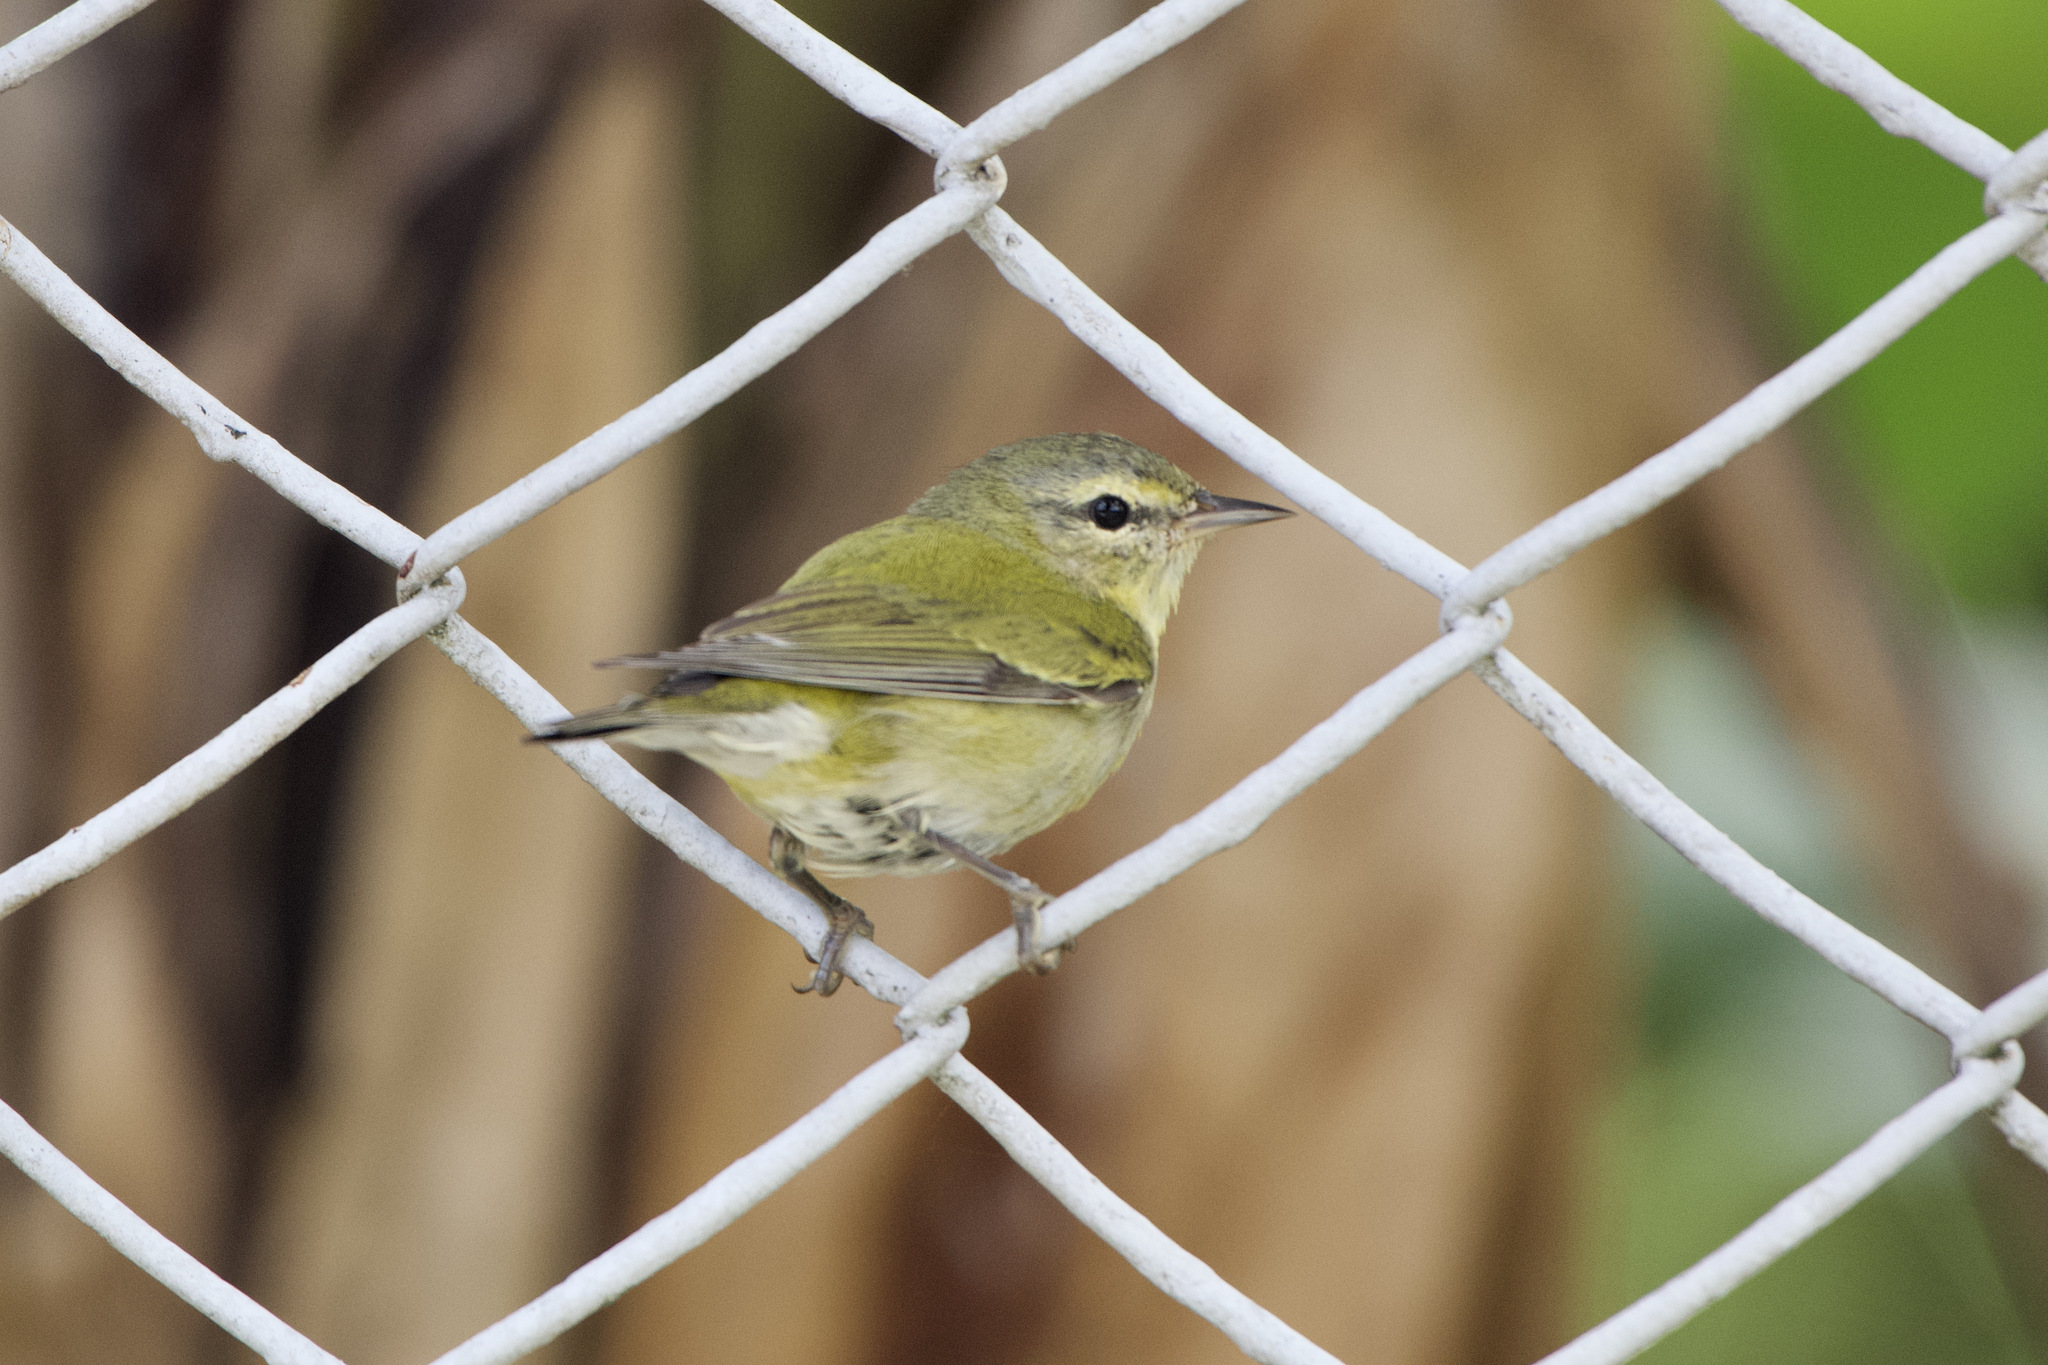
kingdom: Animalia
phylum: Chordata
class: Aves
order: Passeriformes
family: Parulidae
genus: Leiothlypis
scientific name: Leiothlypis peregrina
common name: Tennessee warbler
